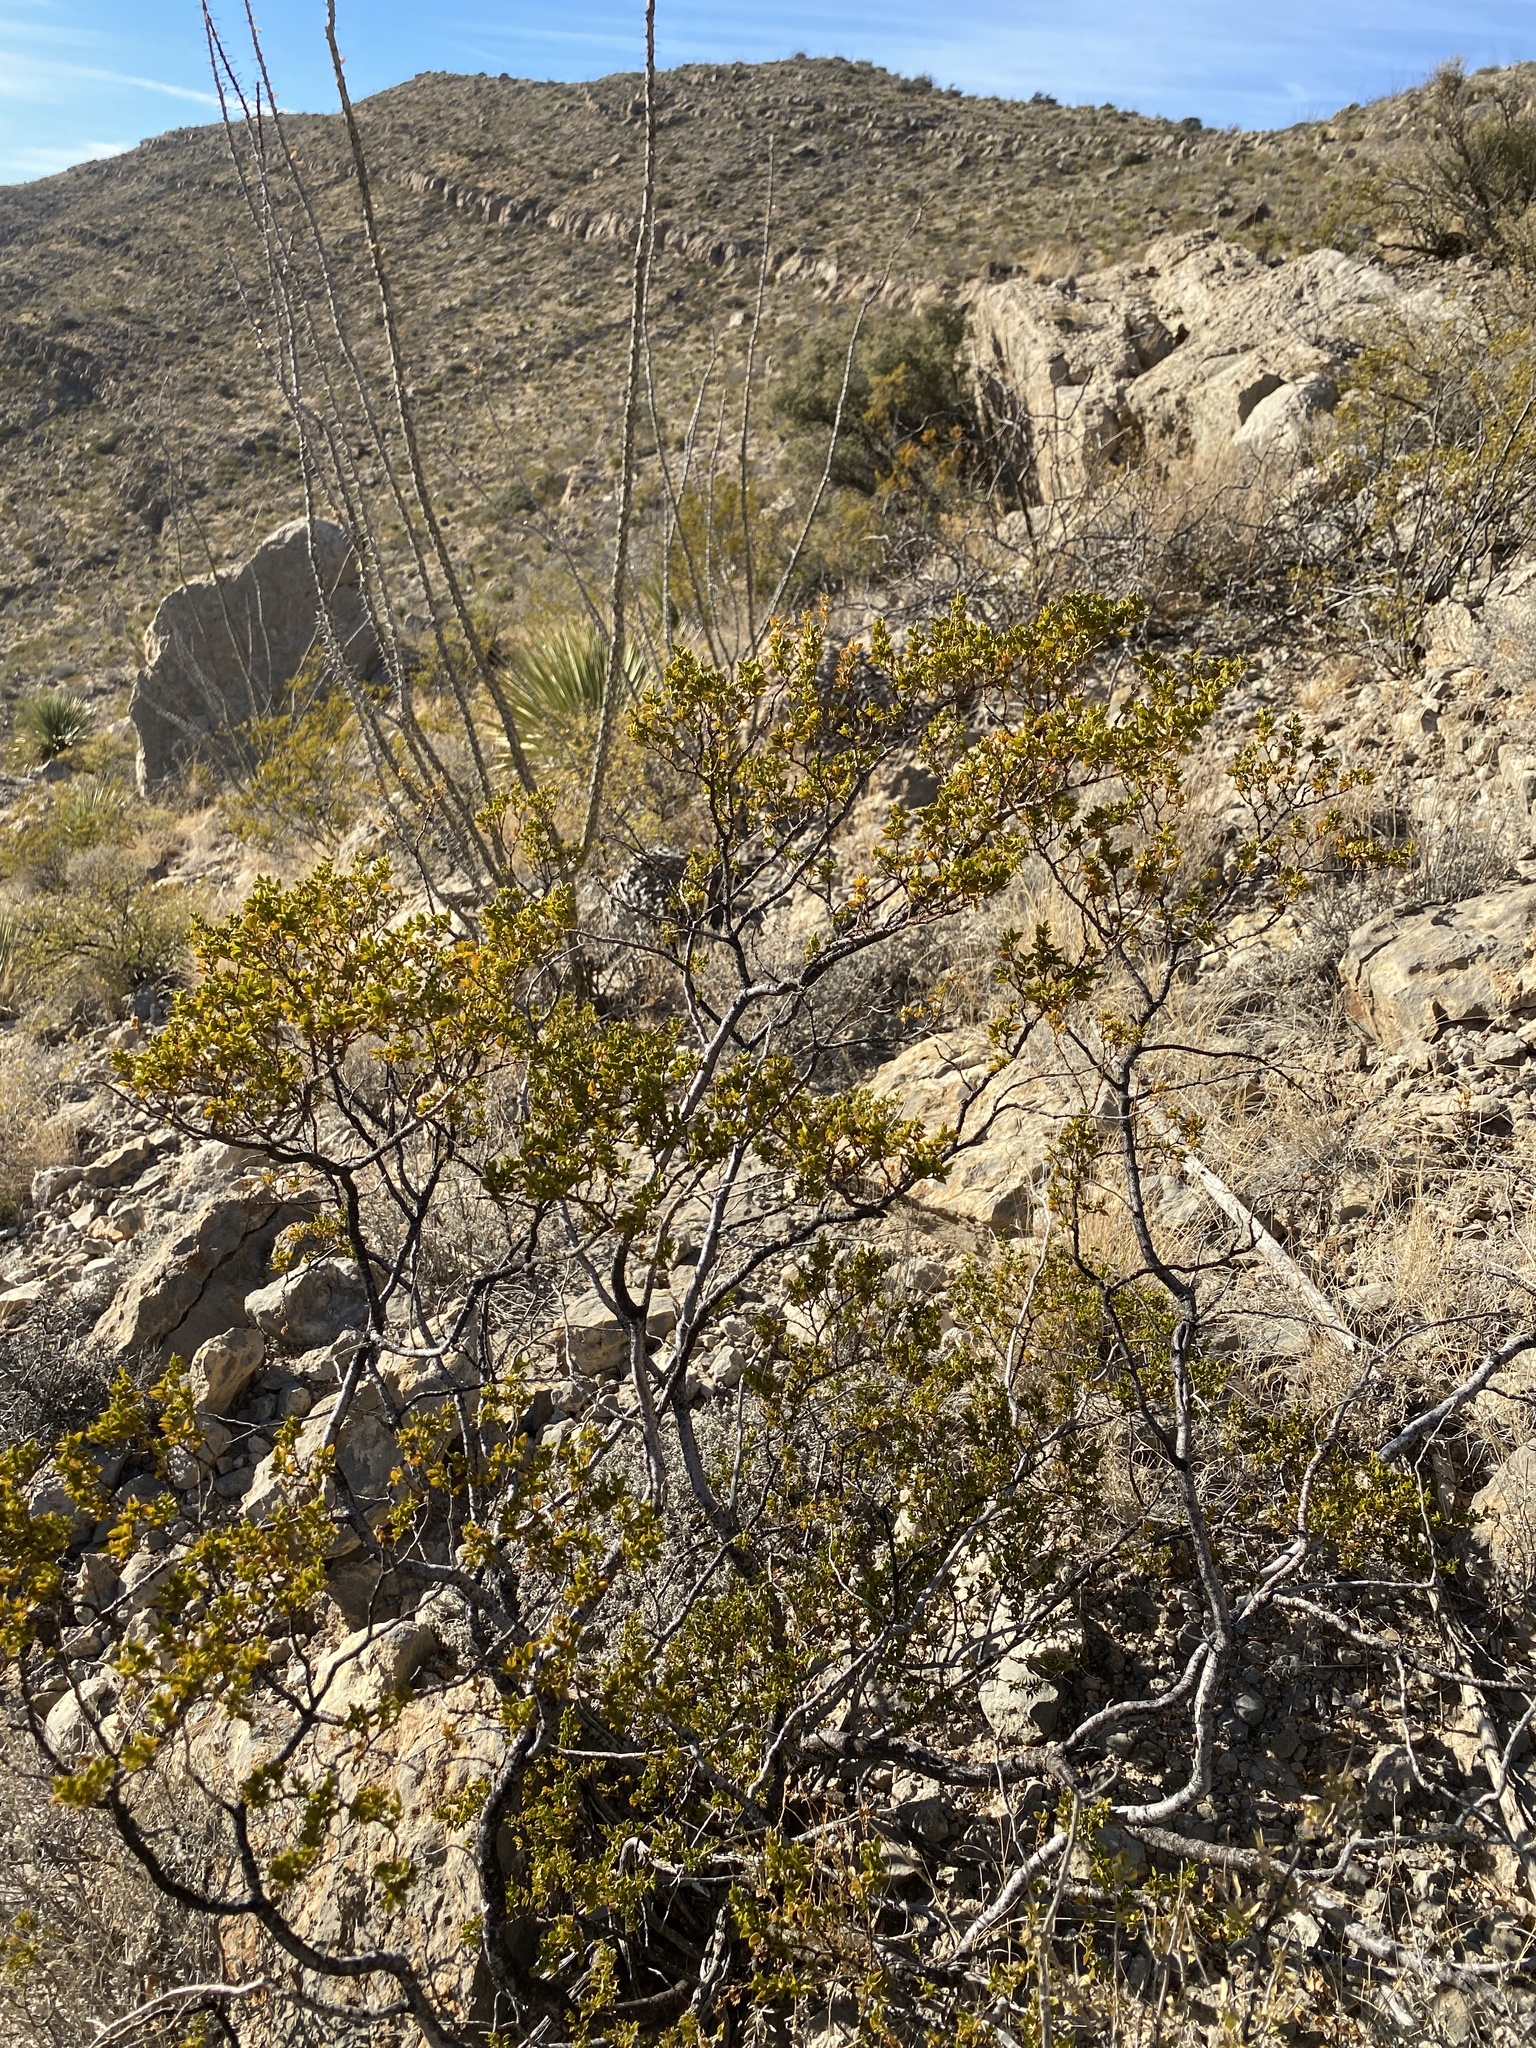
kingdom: Plantae
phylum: Tracheophyta
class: Magnoliopsida
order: Zygophyllales
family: Zygophyllaceae
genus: Larrea
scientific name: Larrea tridentata
